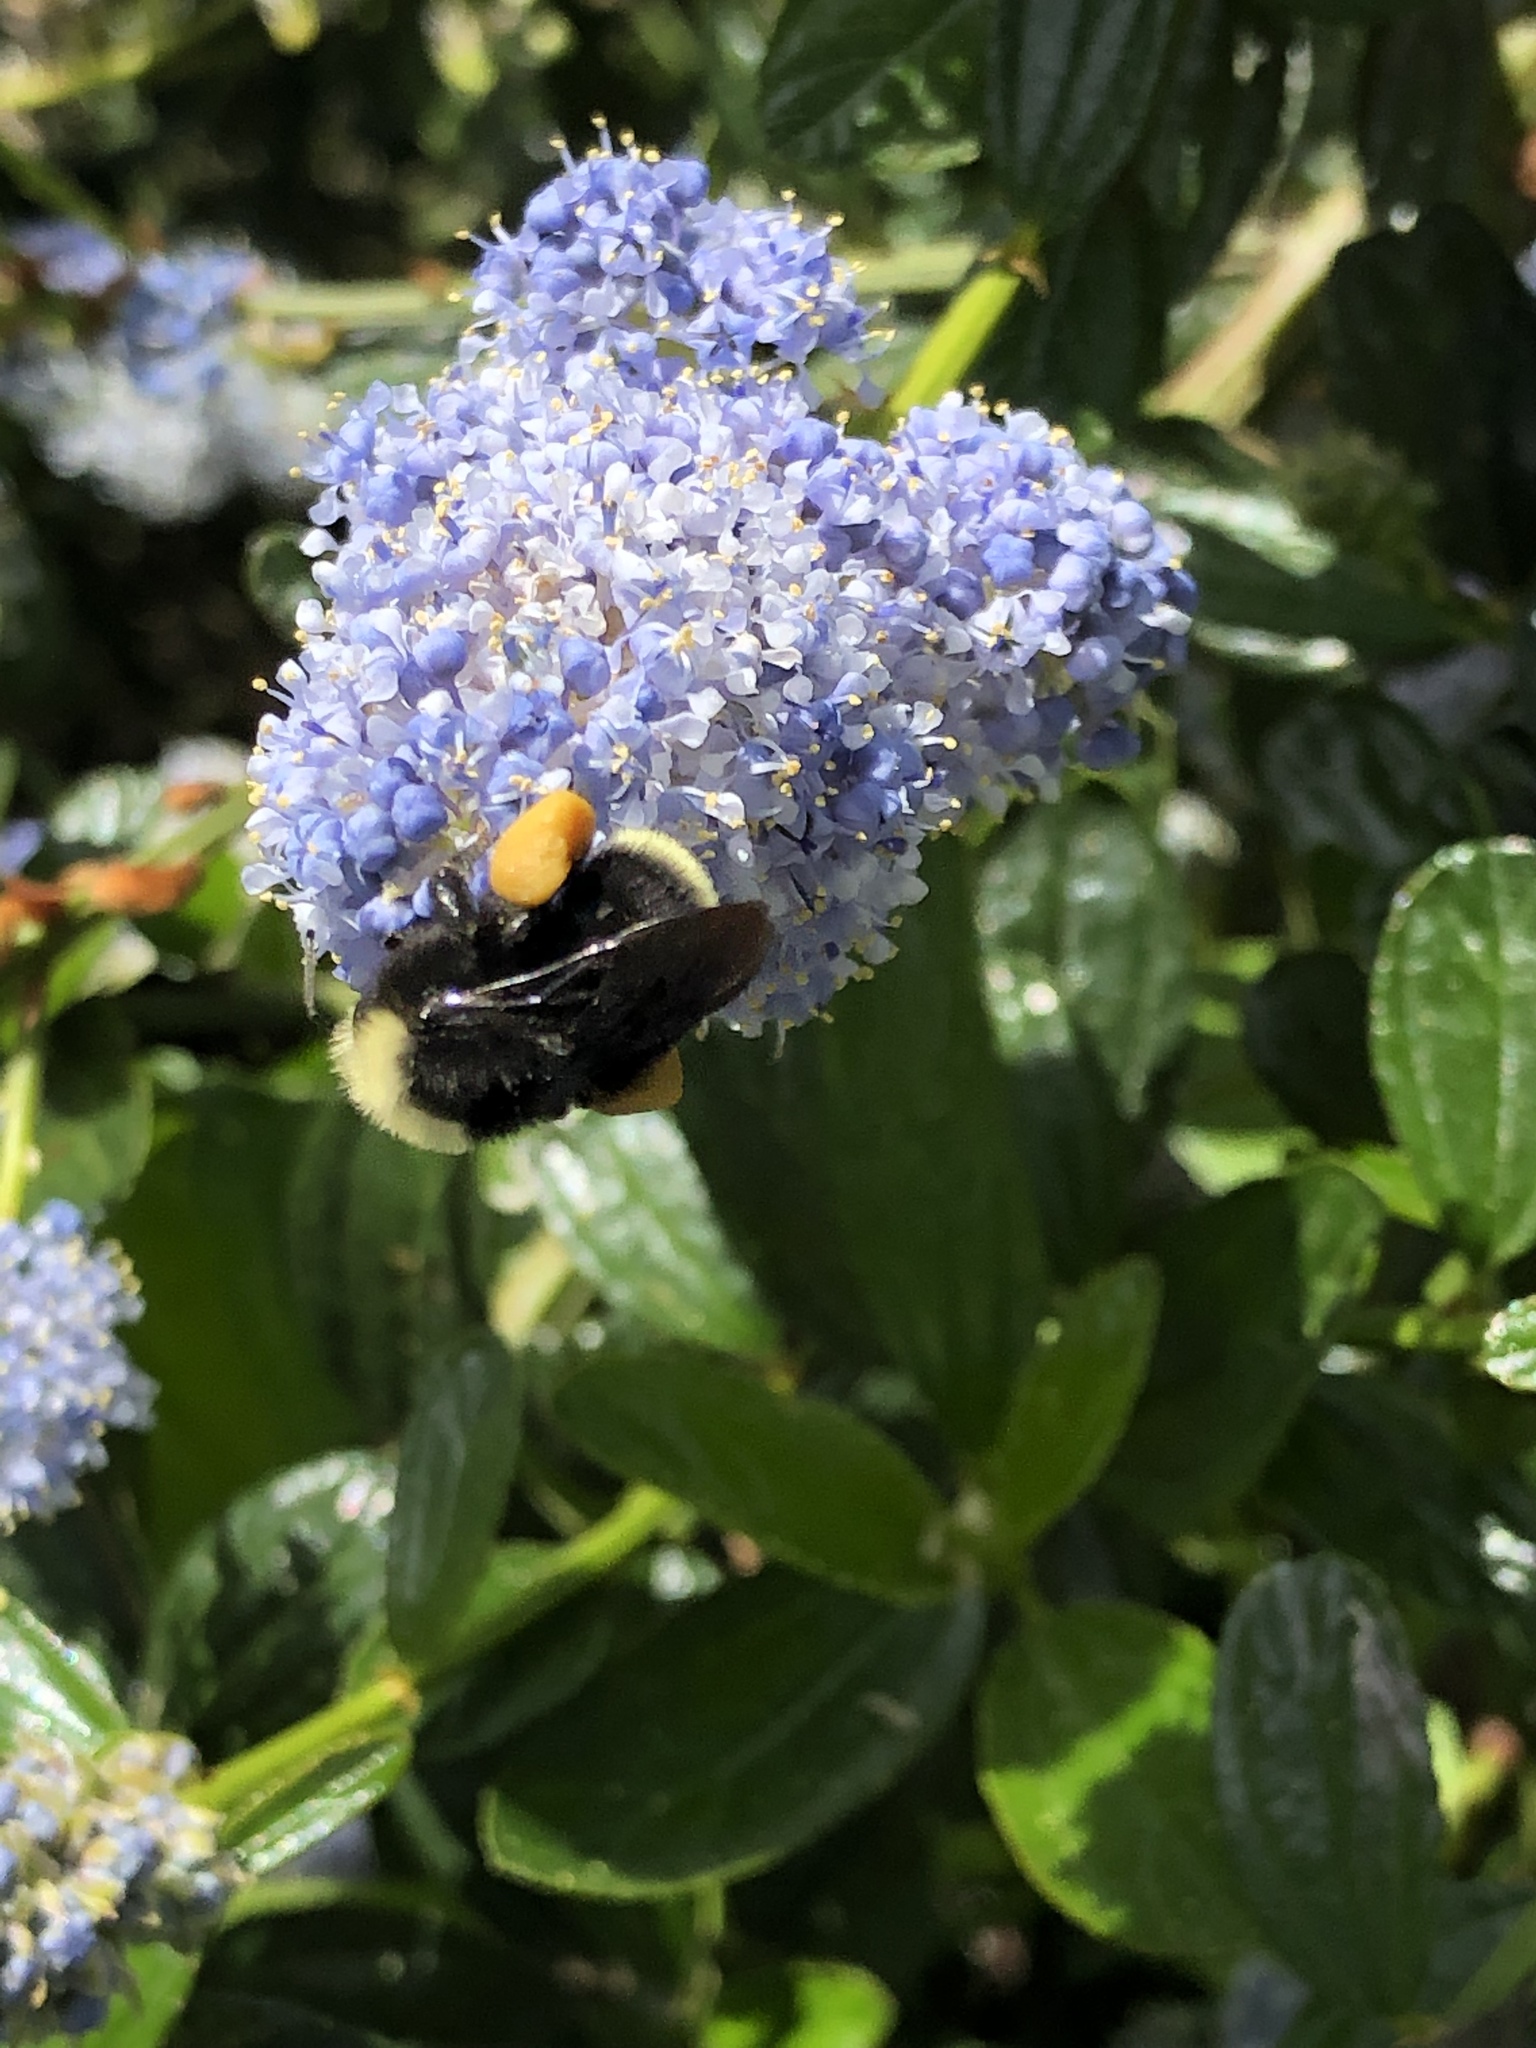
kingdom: Animalia
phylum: Arthropoda
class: Insecta
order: Hymenoptera
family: Apidae
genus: Pyrobombus
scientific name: Pyrobombus
